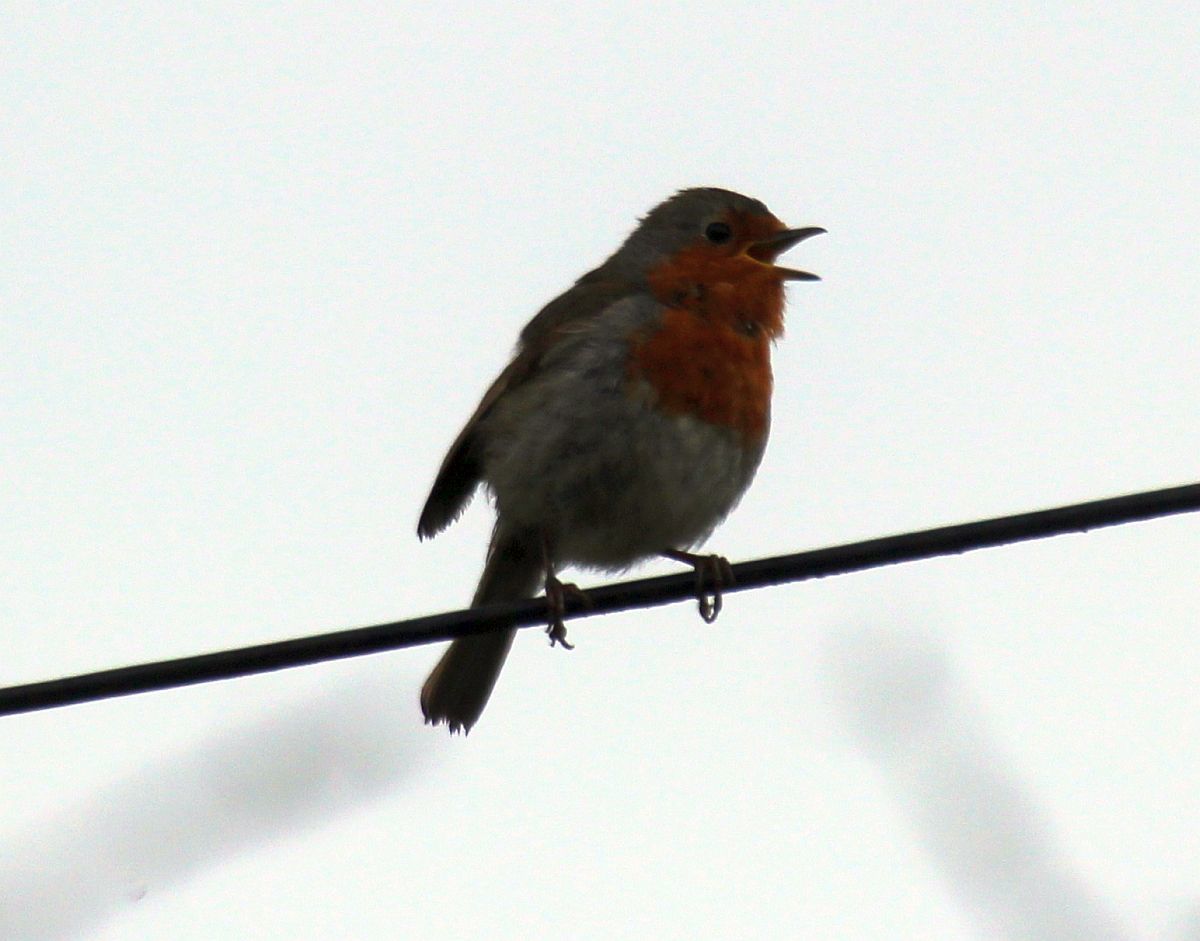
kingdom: Animalia
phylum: Chordata
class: Aves
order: Passeriformes
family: Muscicapidae
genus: Erithacus
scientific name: Erithacus rubecula
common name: European robin
